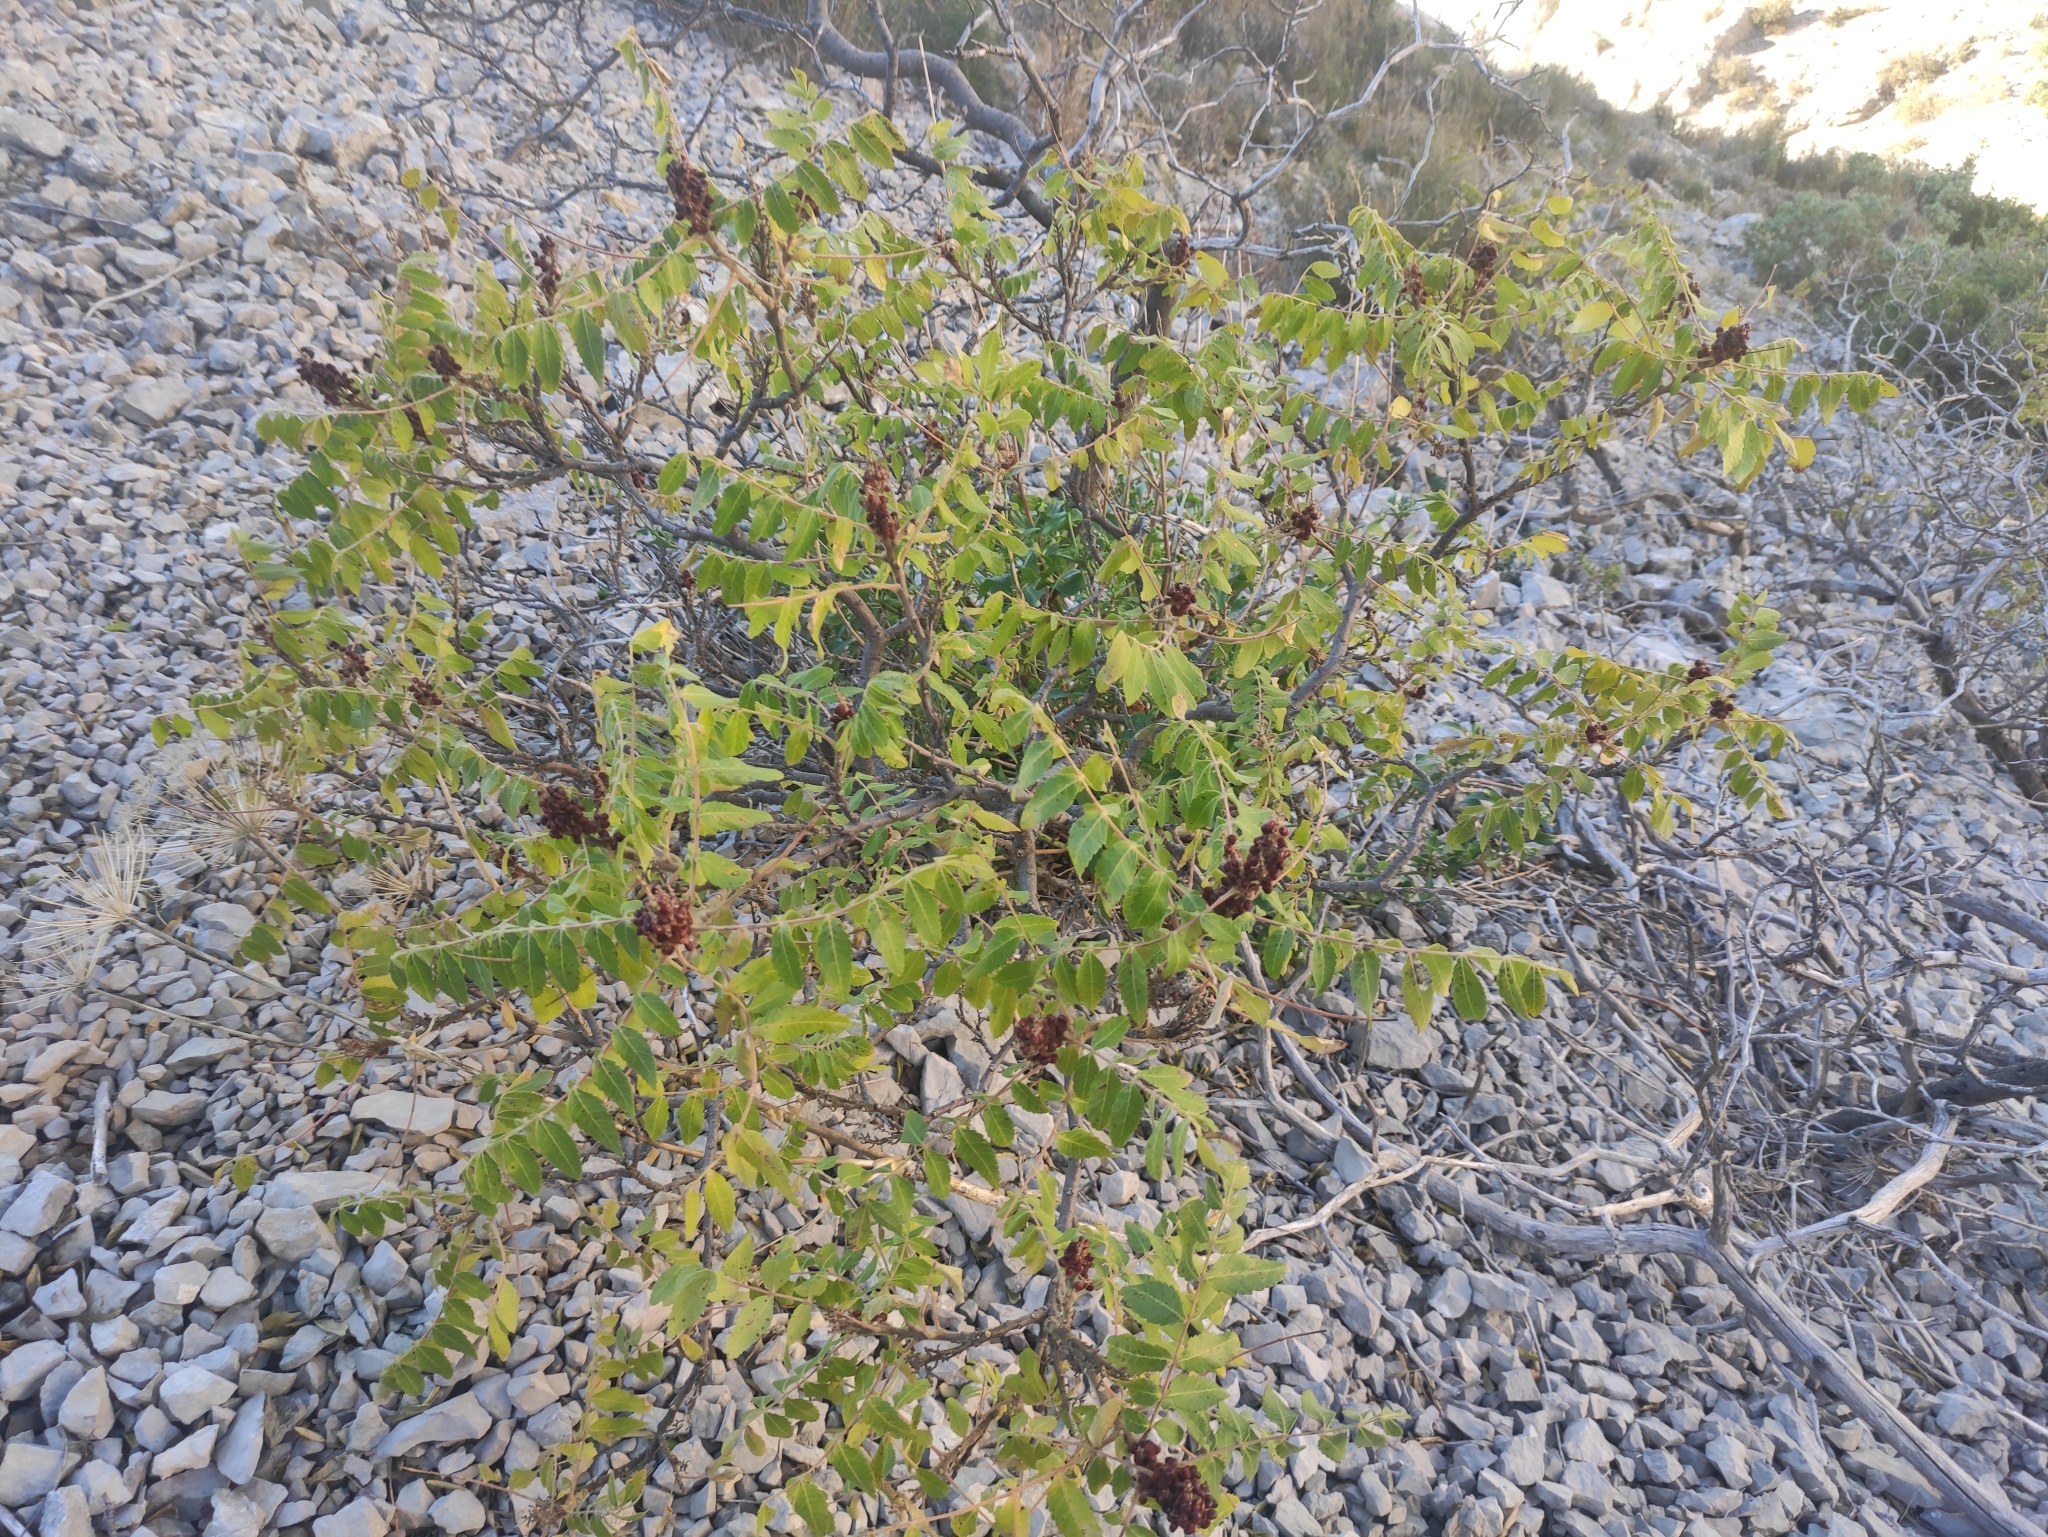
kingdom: Plantae
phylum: Tracheophyta
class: Magnoliopsida
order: Sapindales
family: Anacardiaceae
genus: Rhus
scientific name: Rhus coriaria
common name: Tanner's sumach
